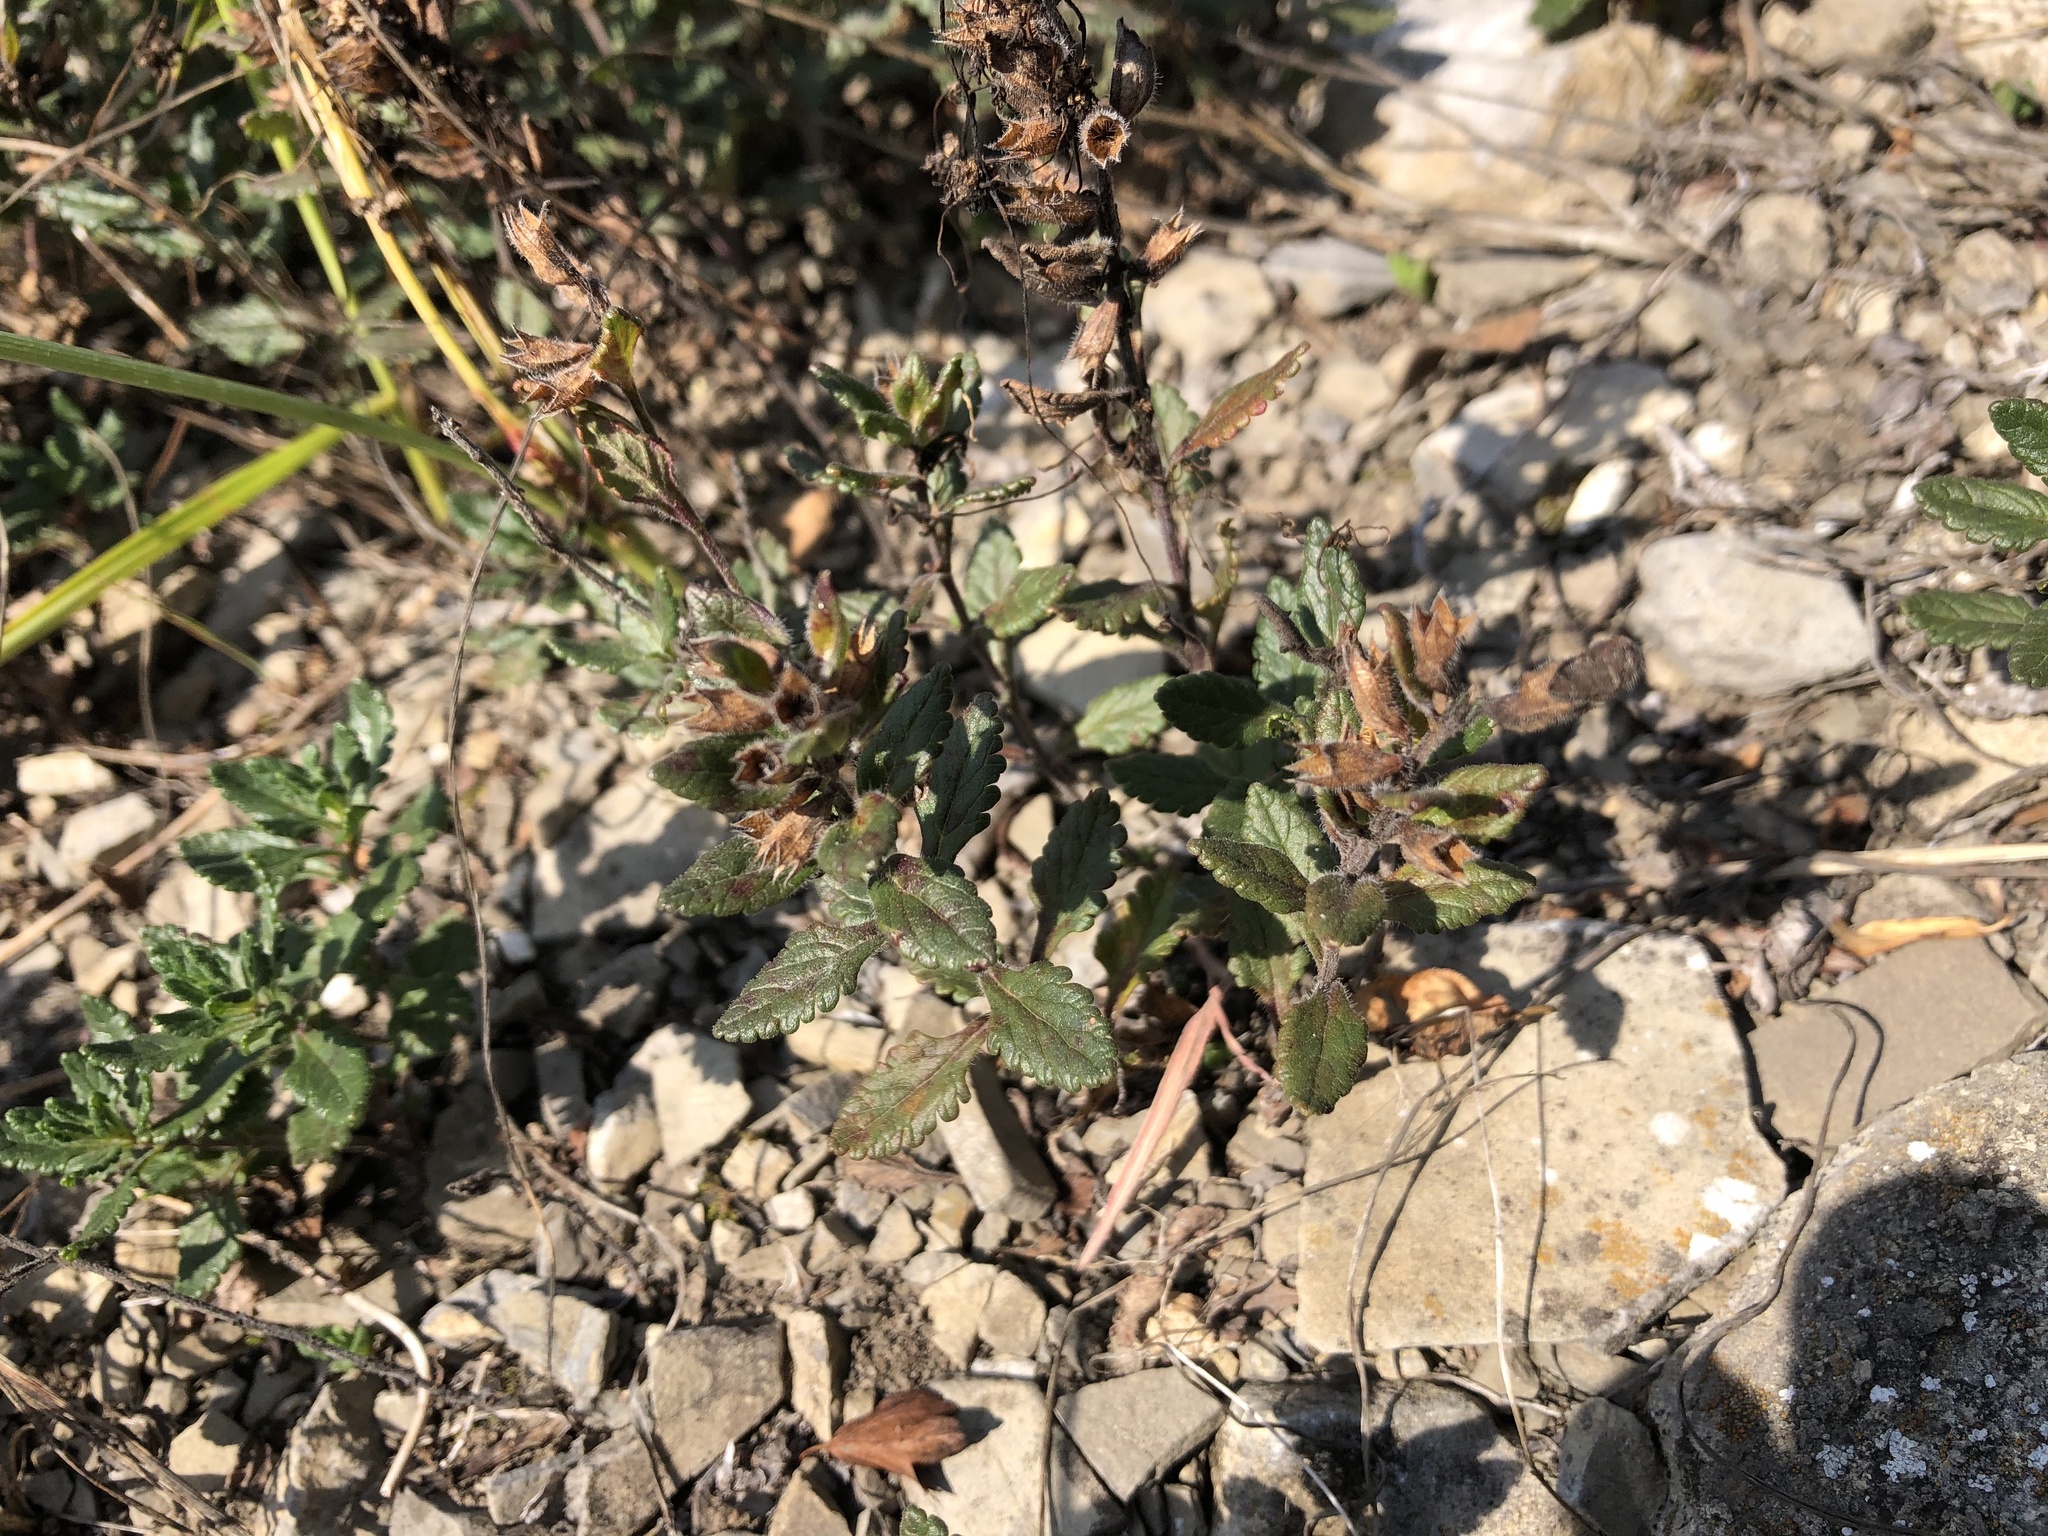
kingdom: Plantae
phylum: Tracheophyta
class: Magnoliopsida
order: Lamiales
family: Lamiaceae
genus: Teucrium
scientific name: Teucrium chamaedrys
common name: Wall germander
